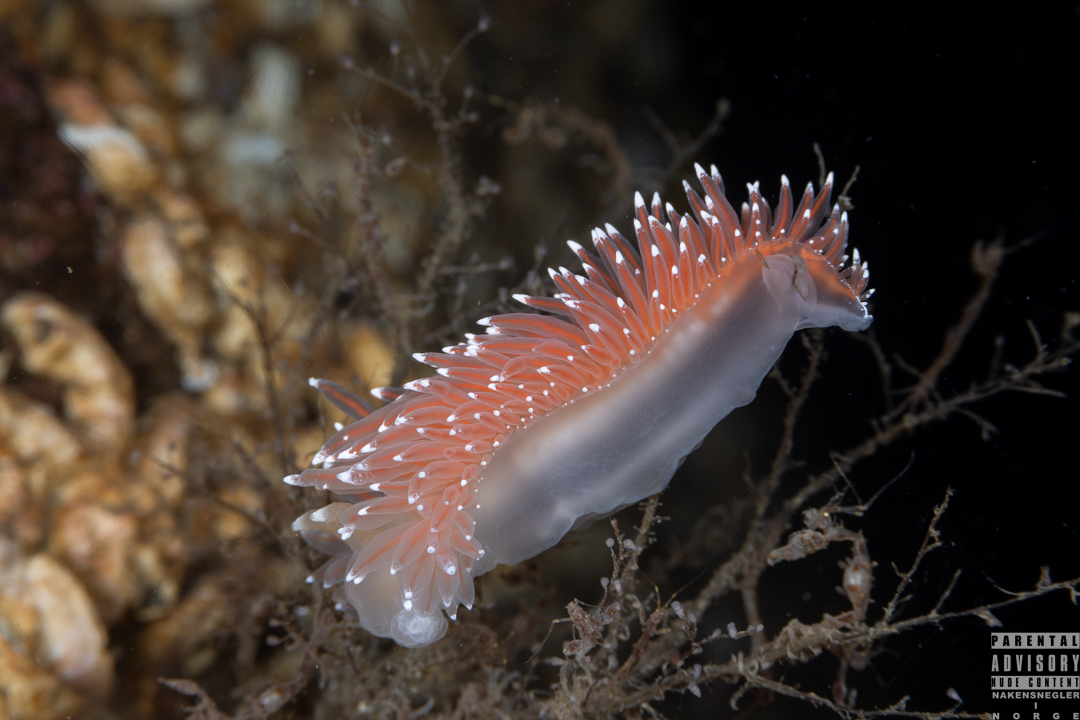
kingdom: Animalia
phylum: Mollusca
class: Gastropoda
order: Nudibranchia
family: Coryphellidae
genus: Coryphella
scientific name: Coryphella nobilis
